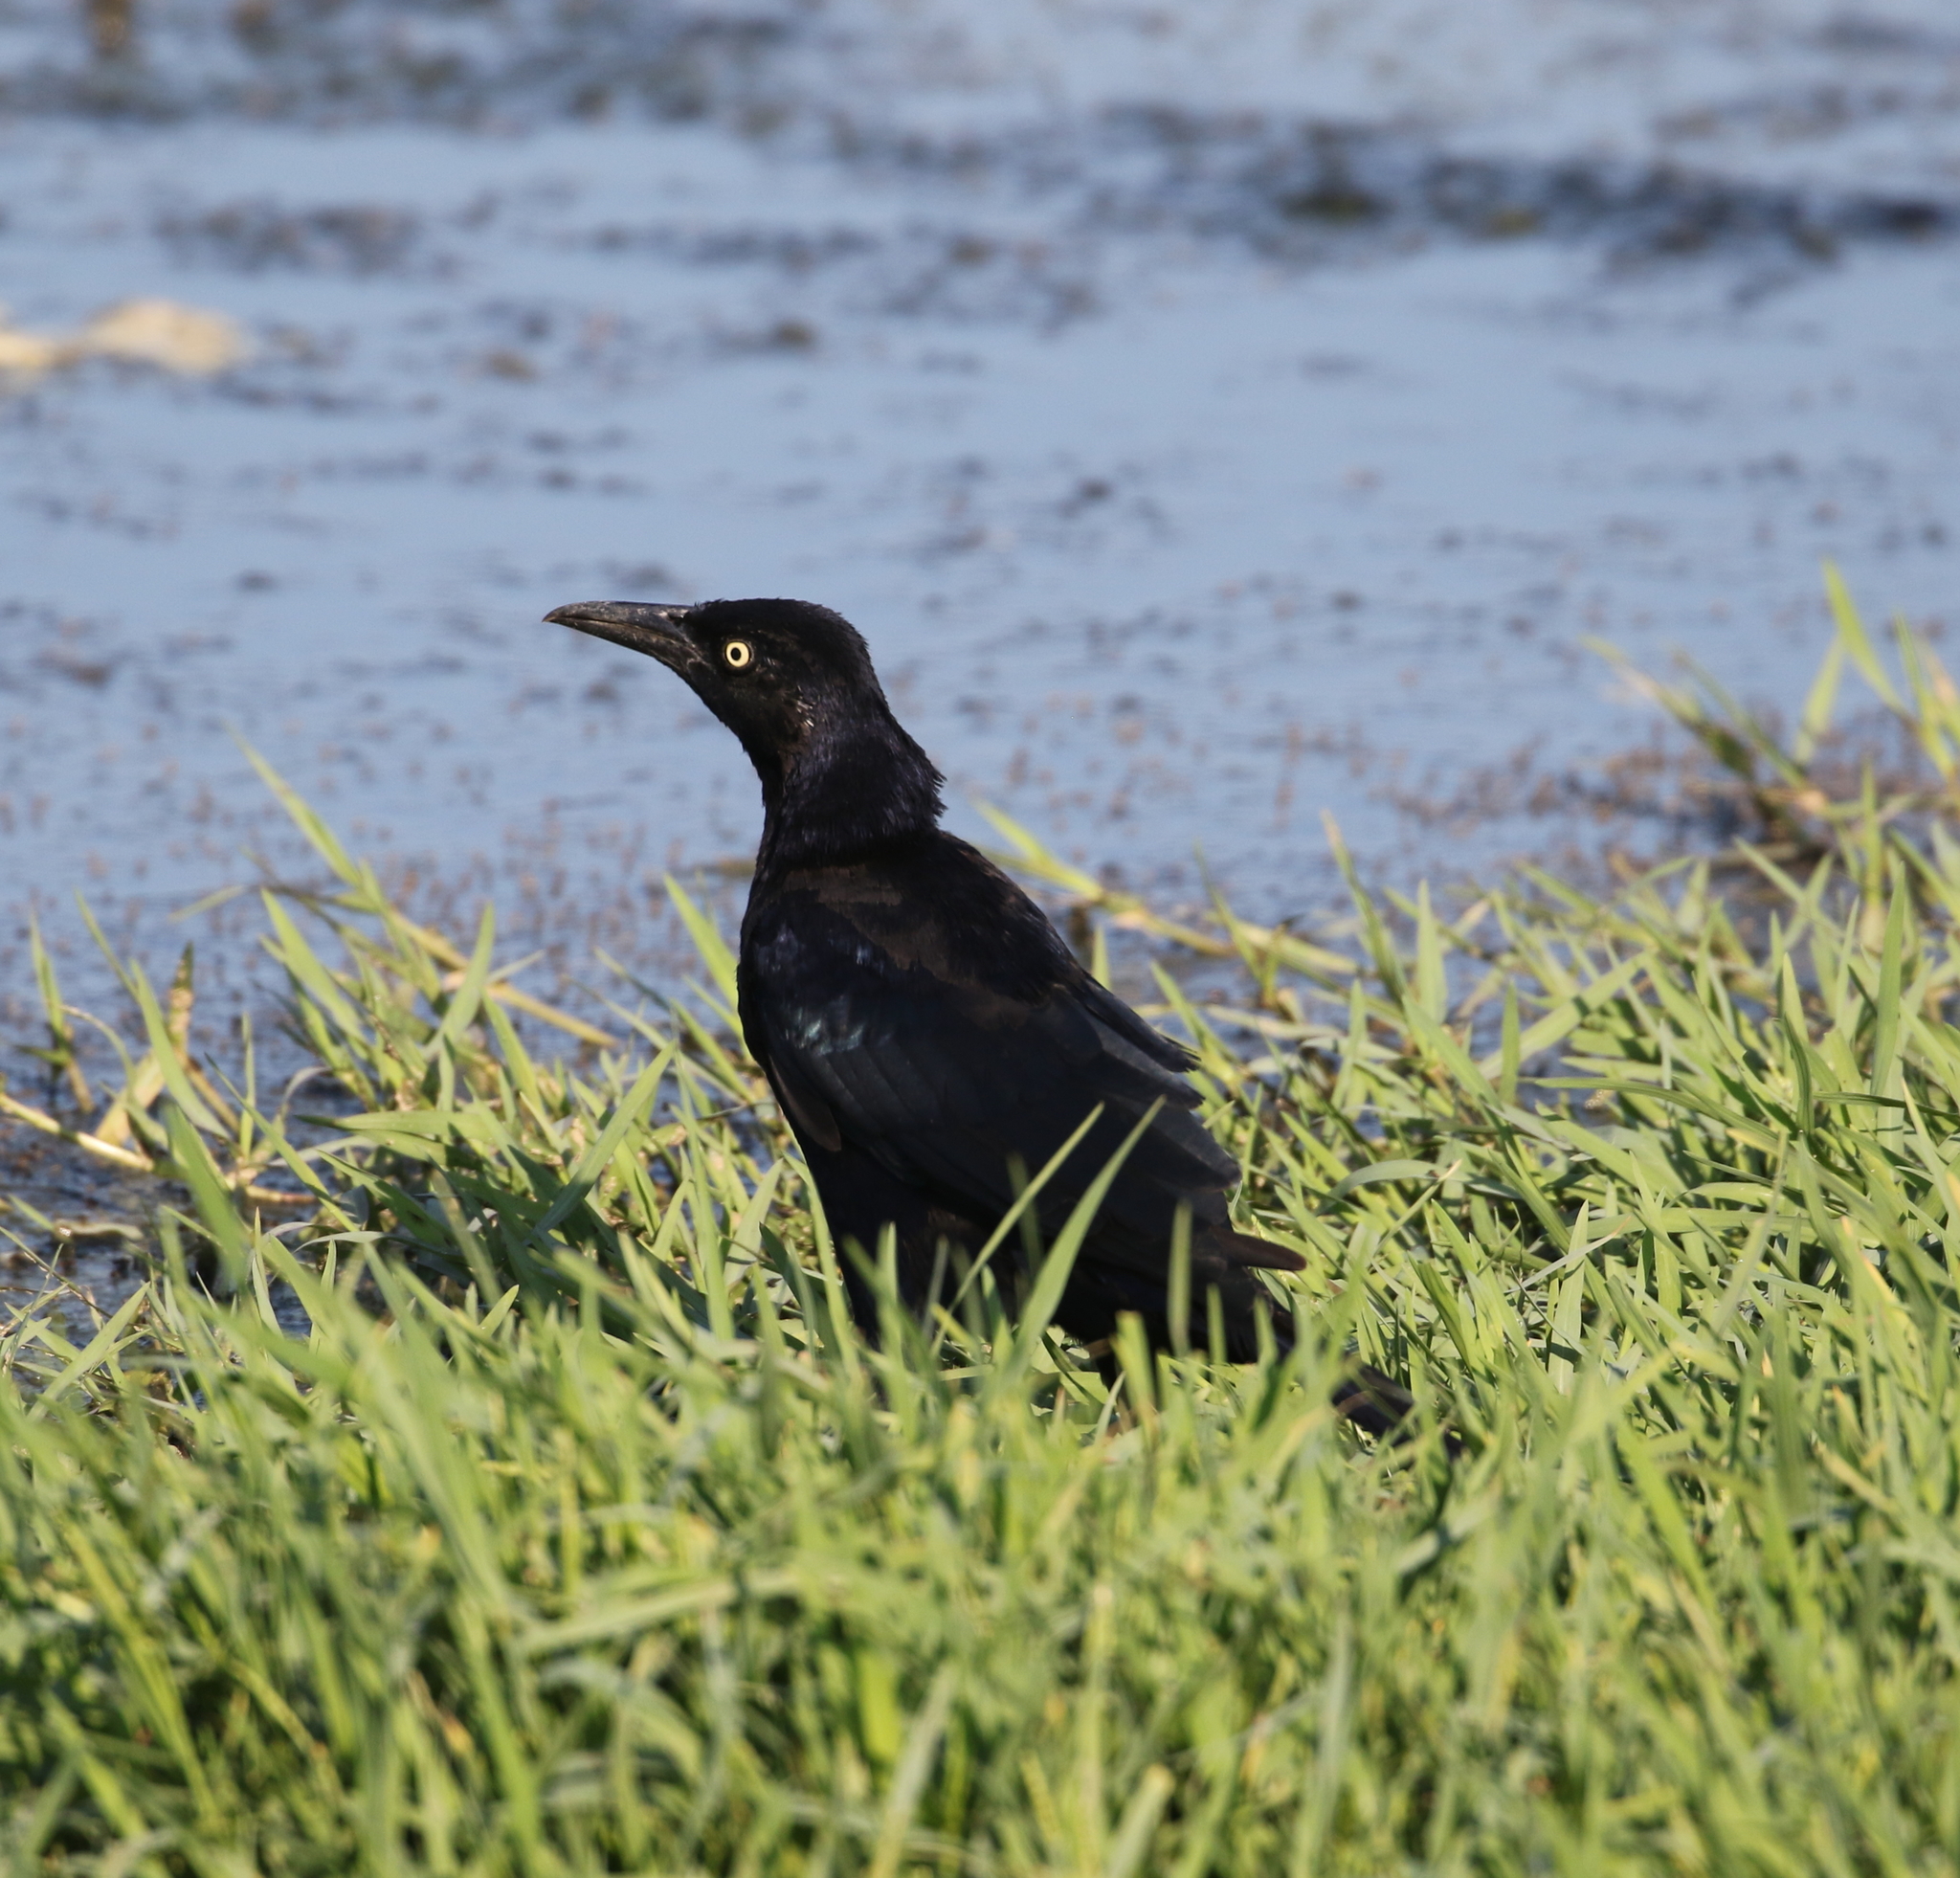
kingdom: Animalia
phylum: Chordata
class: Aves
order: Passeriformes
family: Icteridae
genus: Quiscalus
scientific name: Quiscalus mexicanus
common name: Great-tailed grackle
